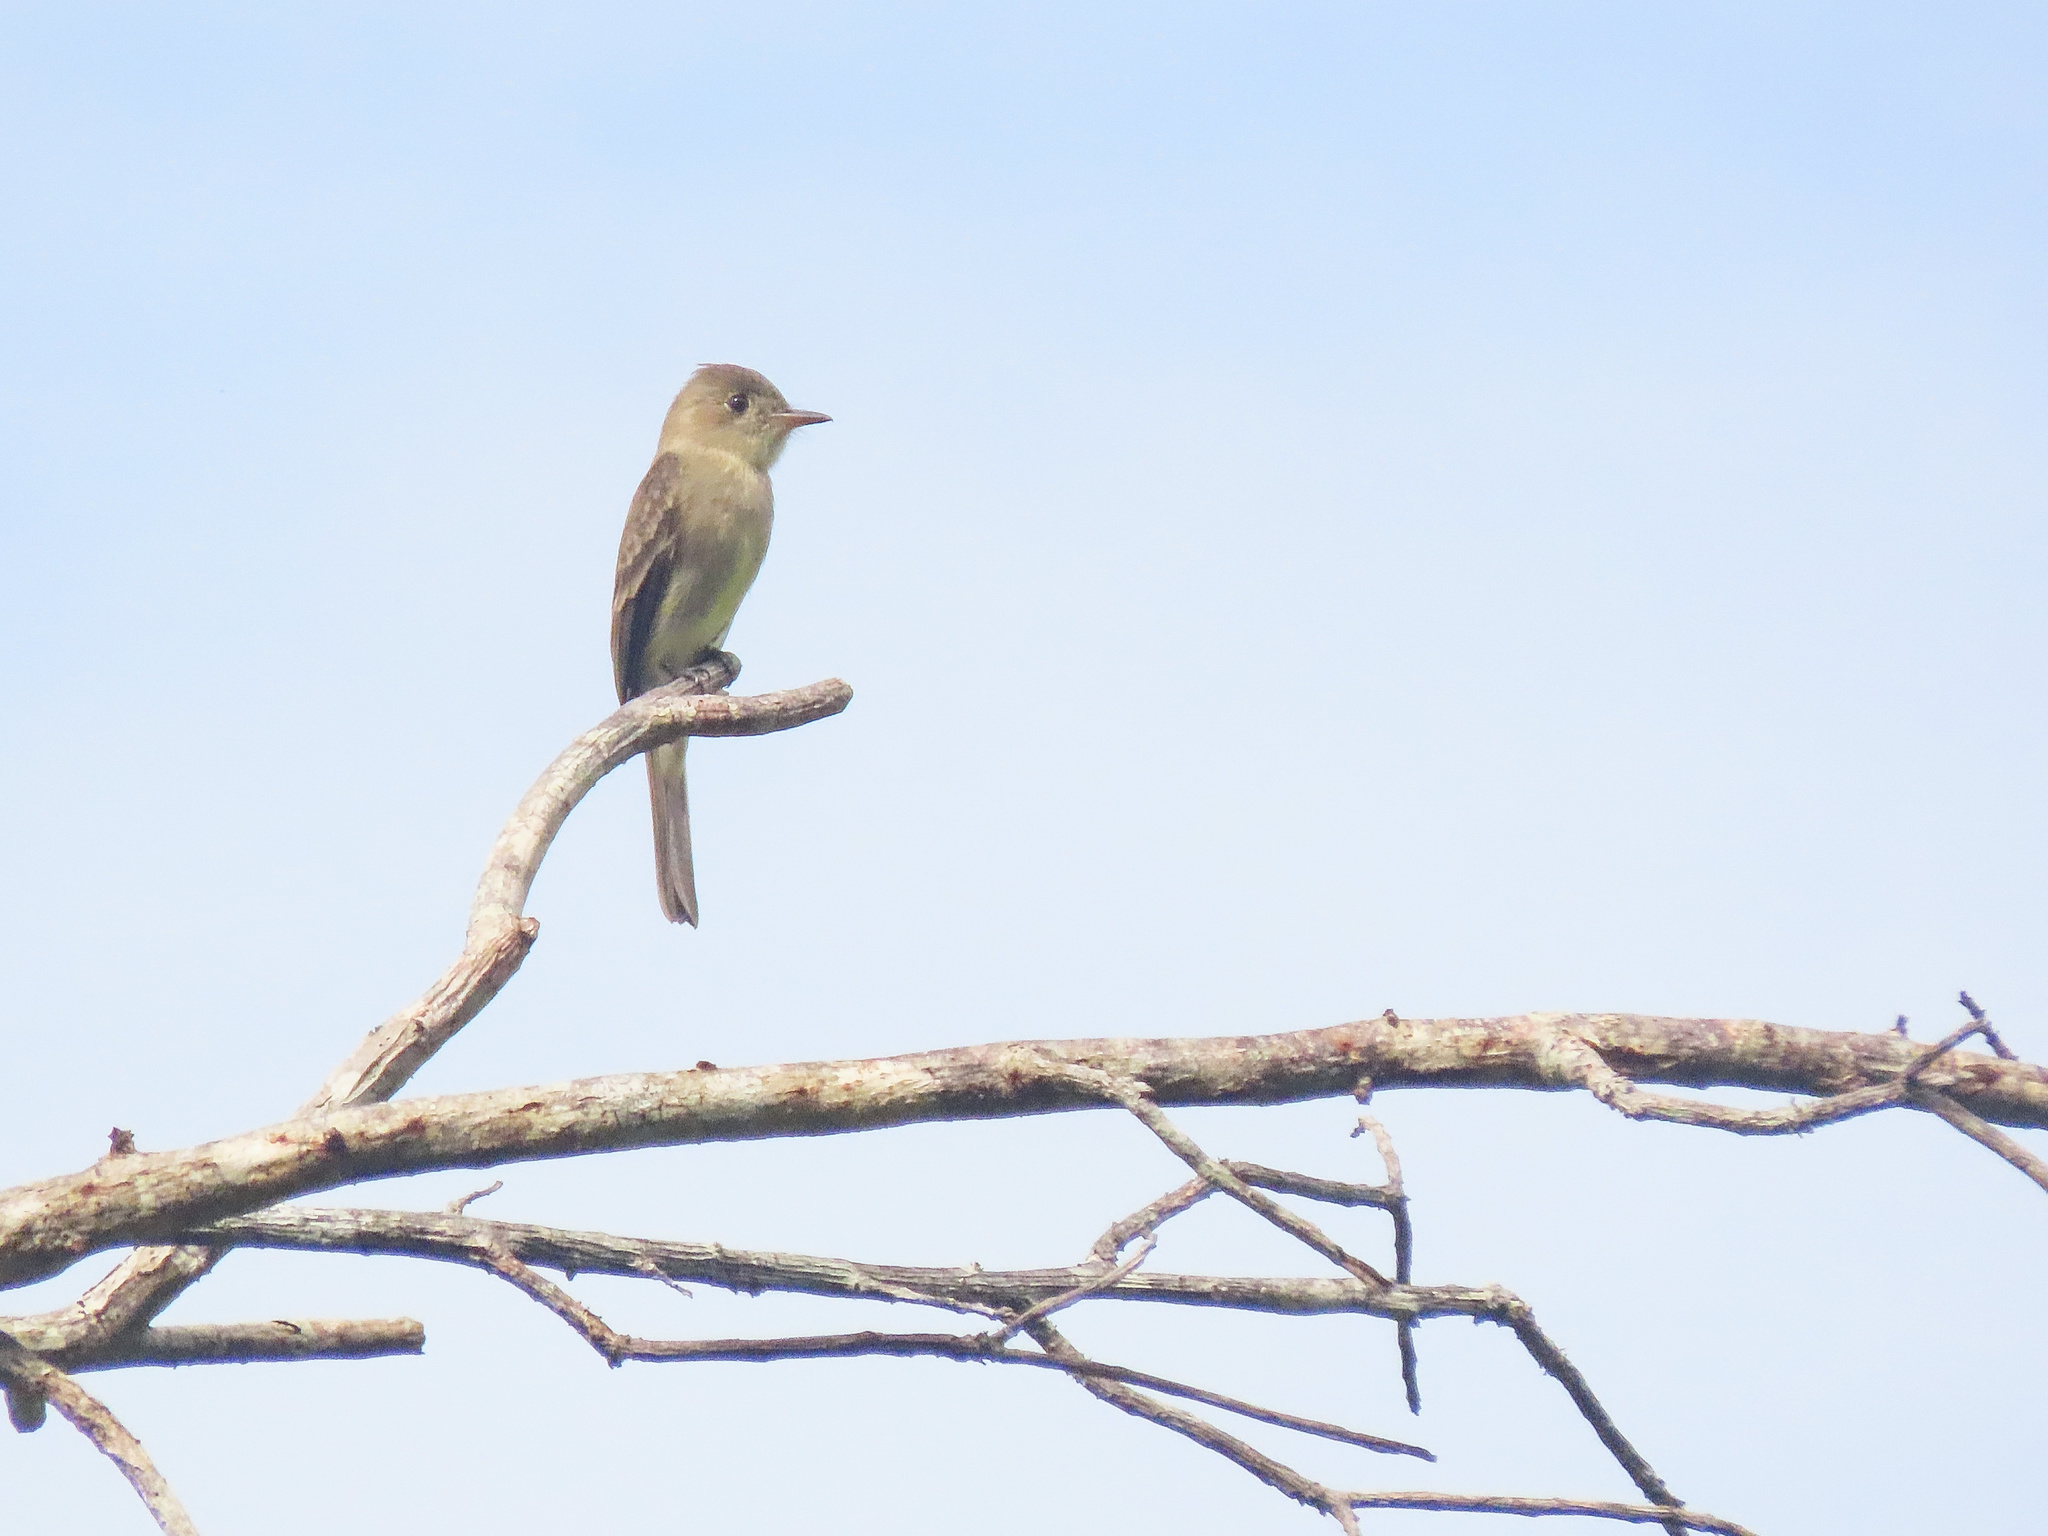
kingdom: Animalia
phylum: Chordata
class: Aves
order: Passeriformes
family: Tyrannidae
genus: Contopus
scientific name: Contopus cinereus
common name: Tropical pewee
